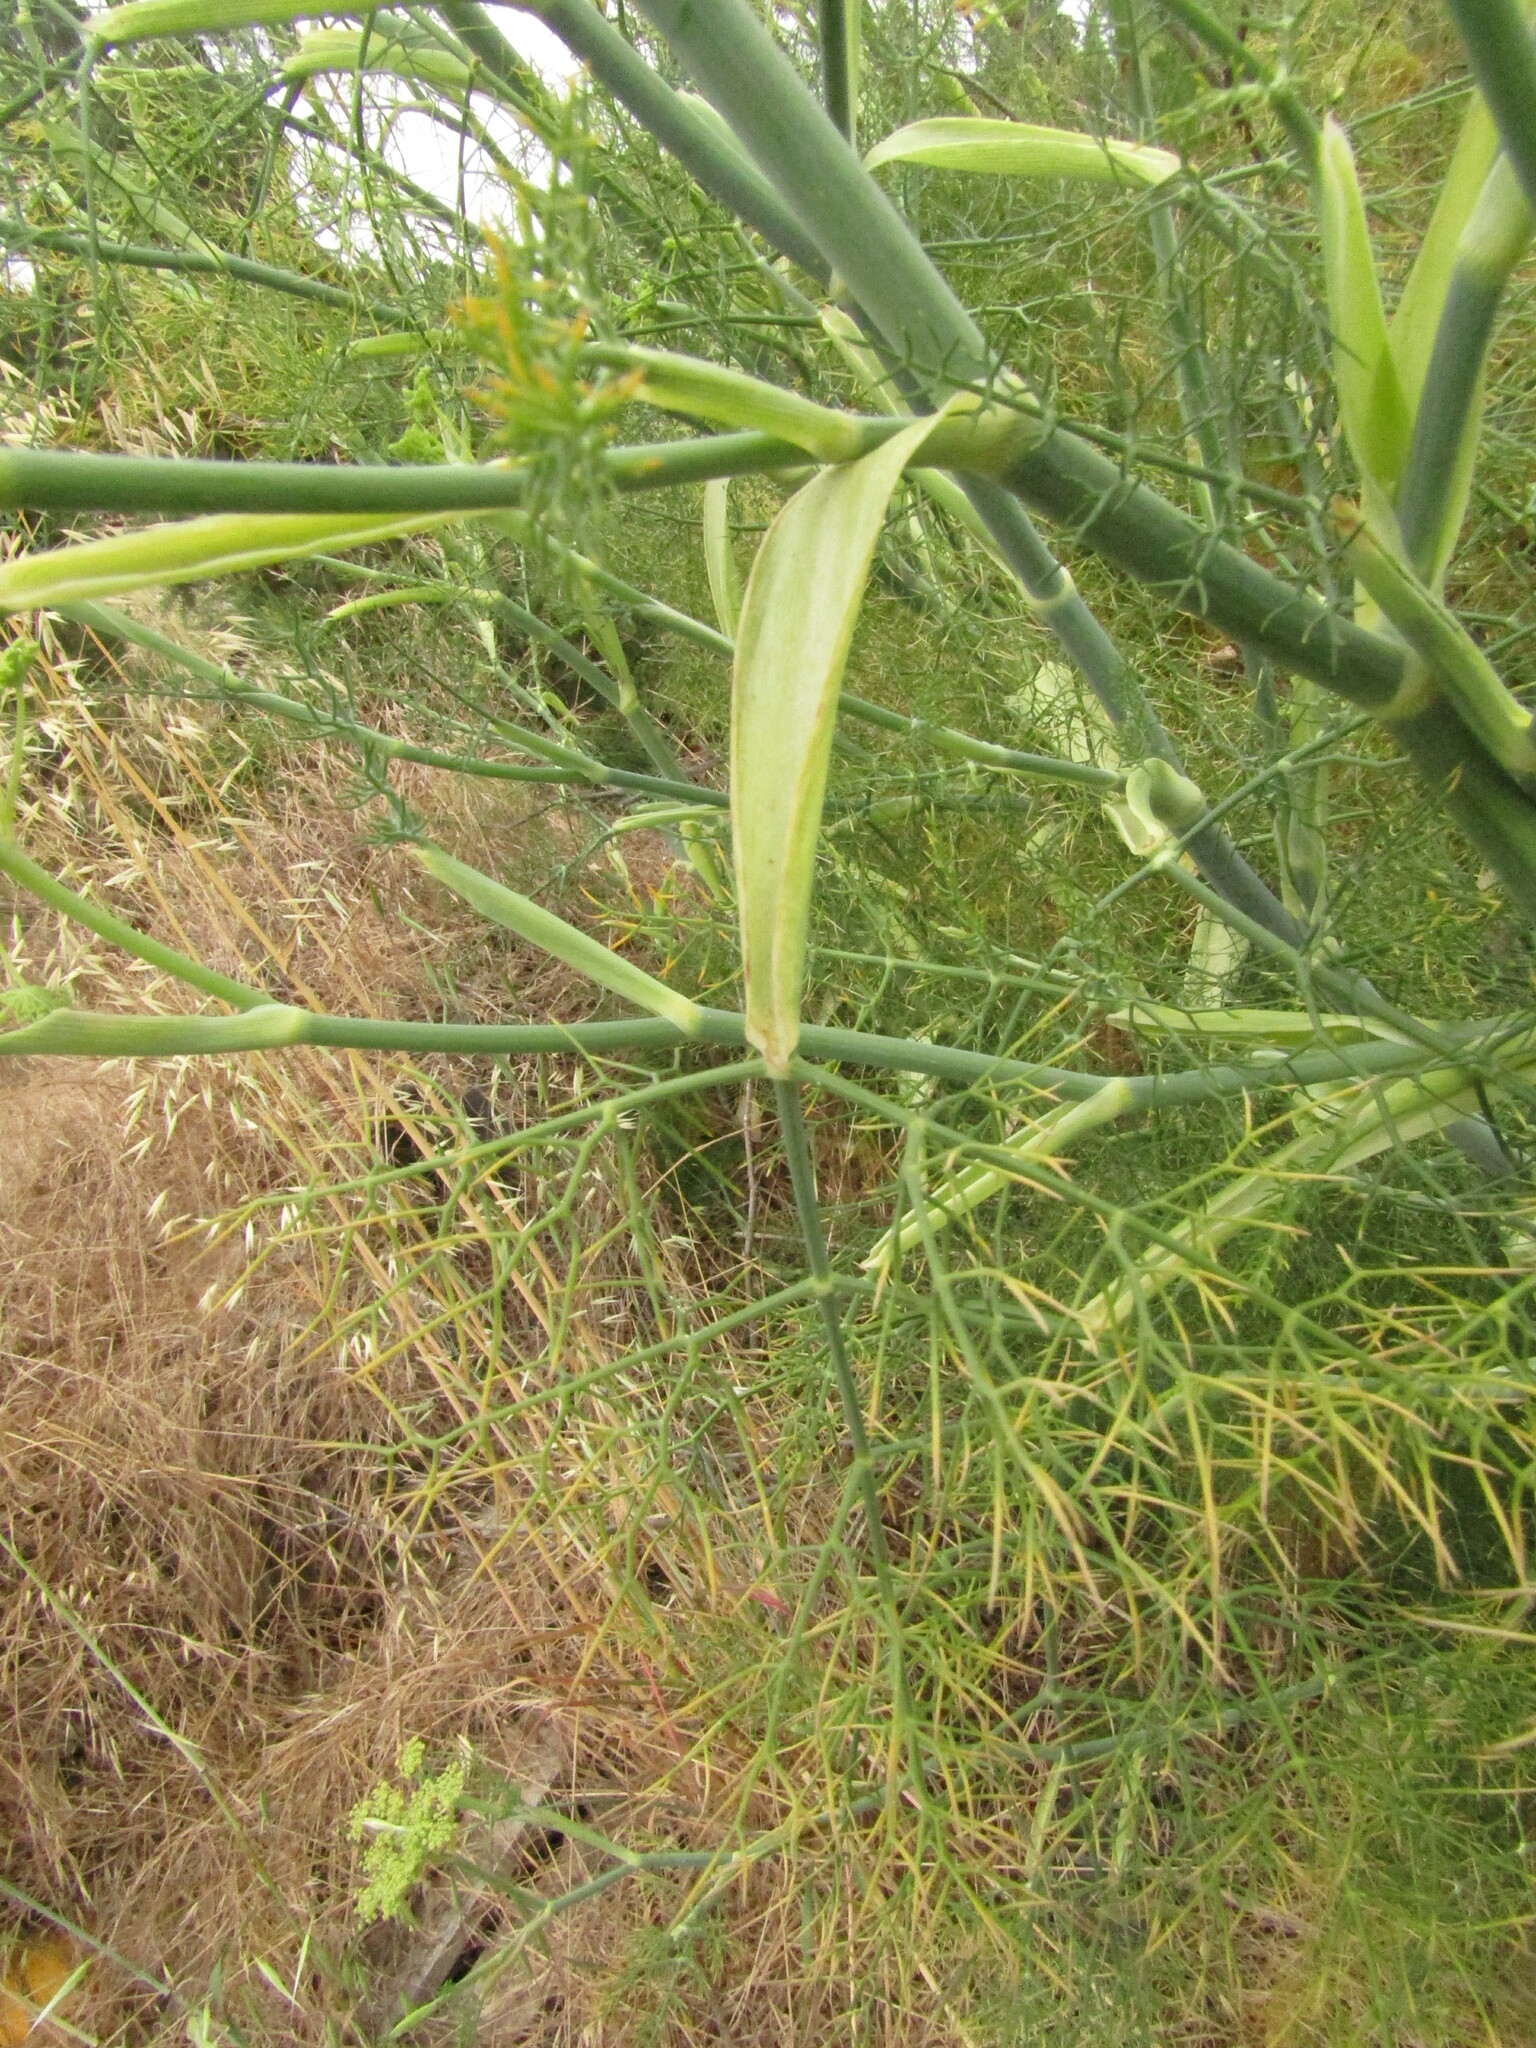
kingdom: Plantae
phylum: Tracheophyta
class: Magnoliopsida
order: Apiales
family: Apiaceae
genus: Foeniculum
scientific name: Foeniculum vulgare
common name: Fennel
